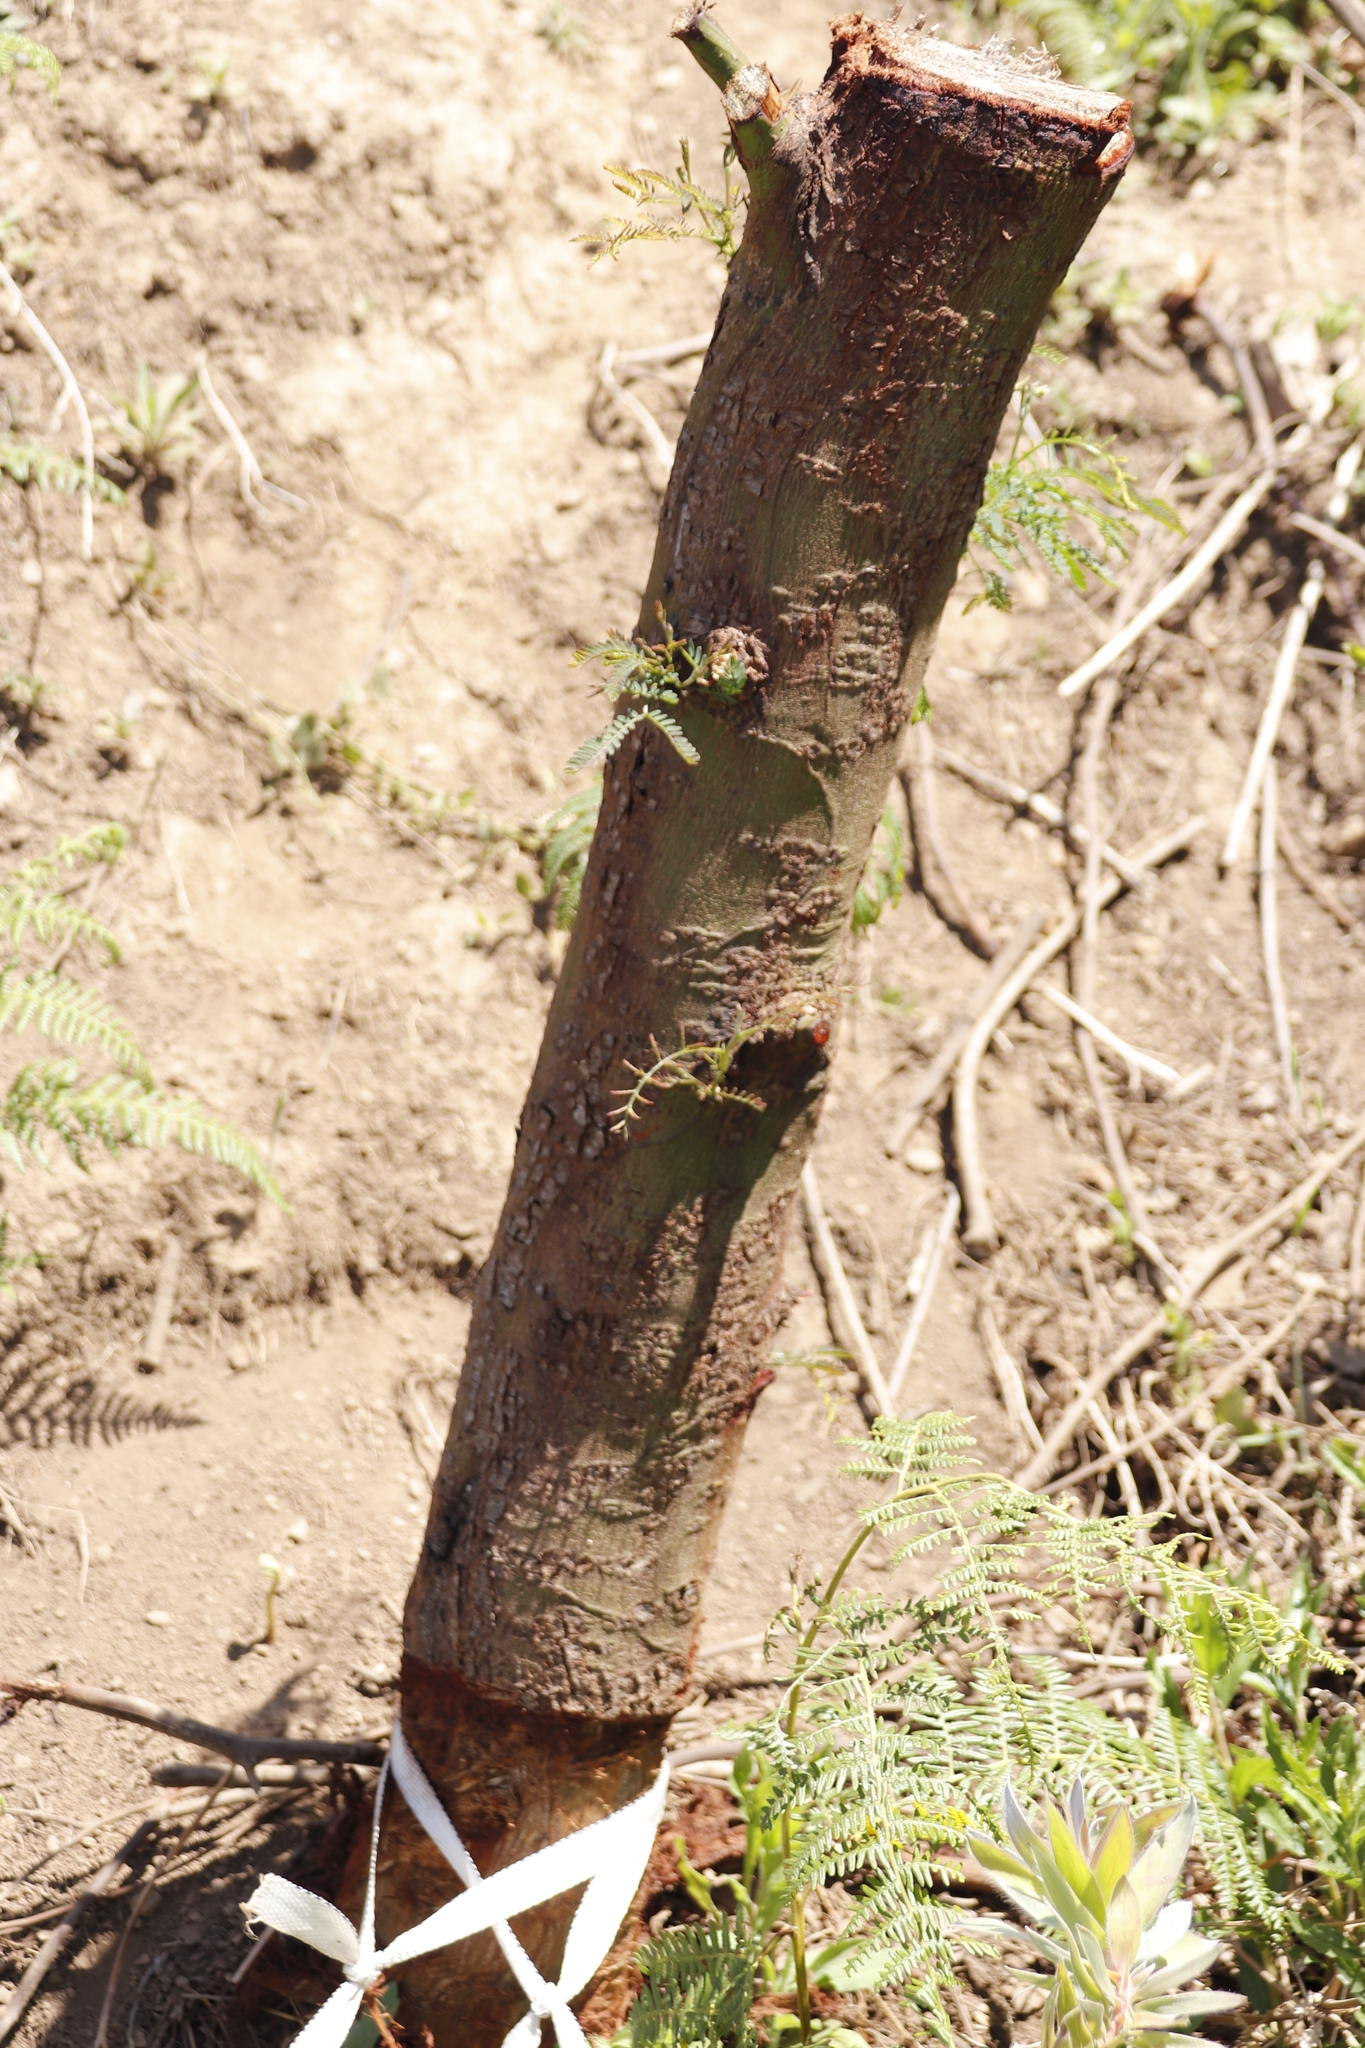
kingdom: Plantae
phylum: Tracheophyta
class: Magnoliopsida
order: Fabales
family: Fabaceae
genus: Acacia
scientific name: Acacia mearnsii
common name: Black wattle
